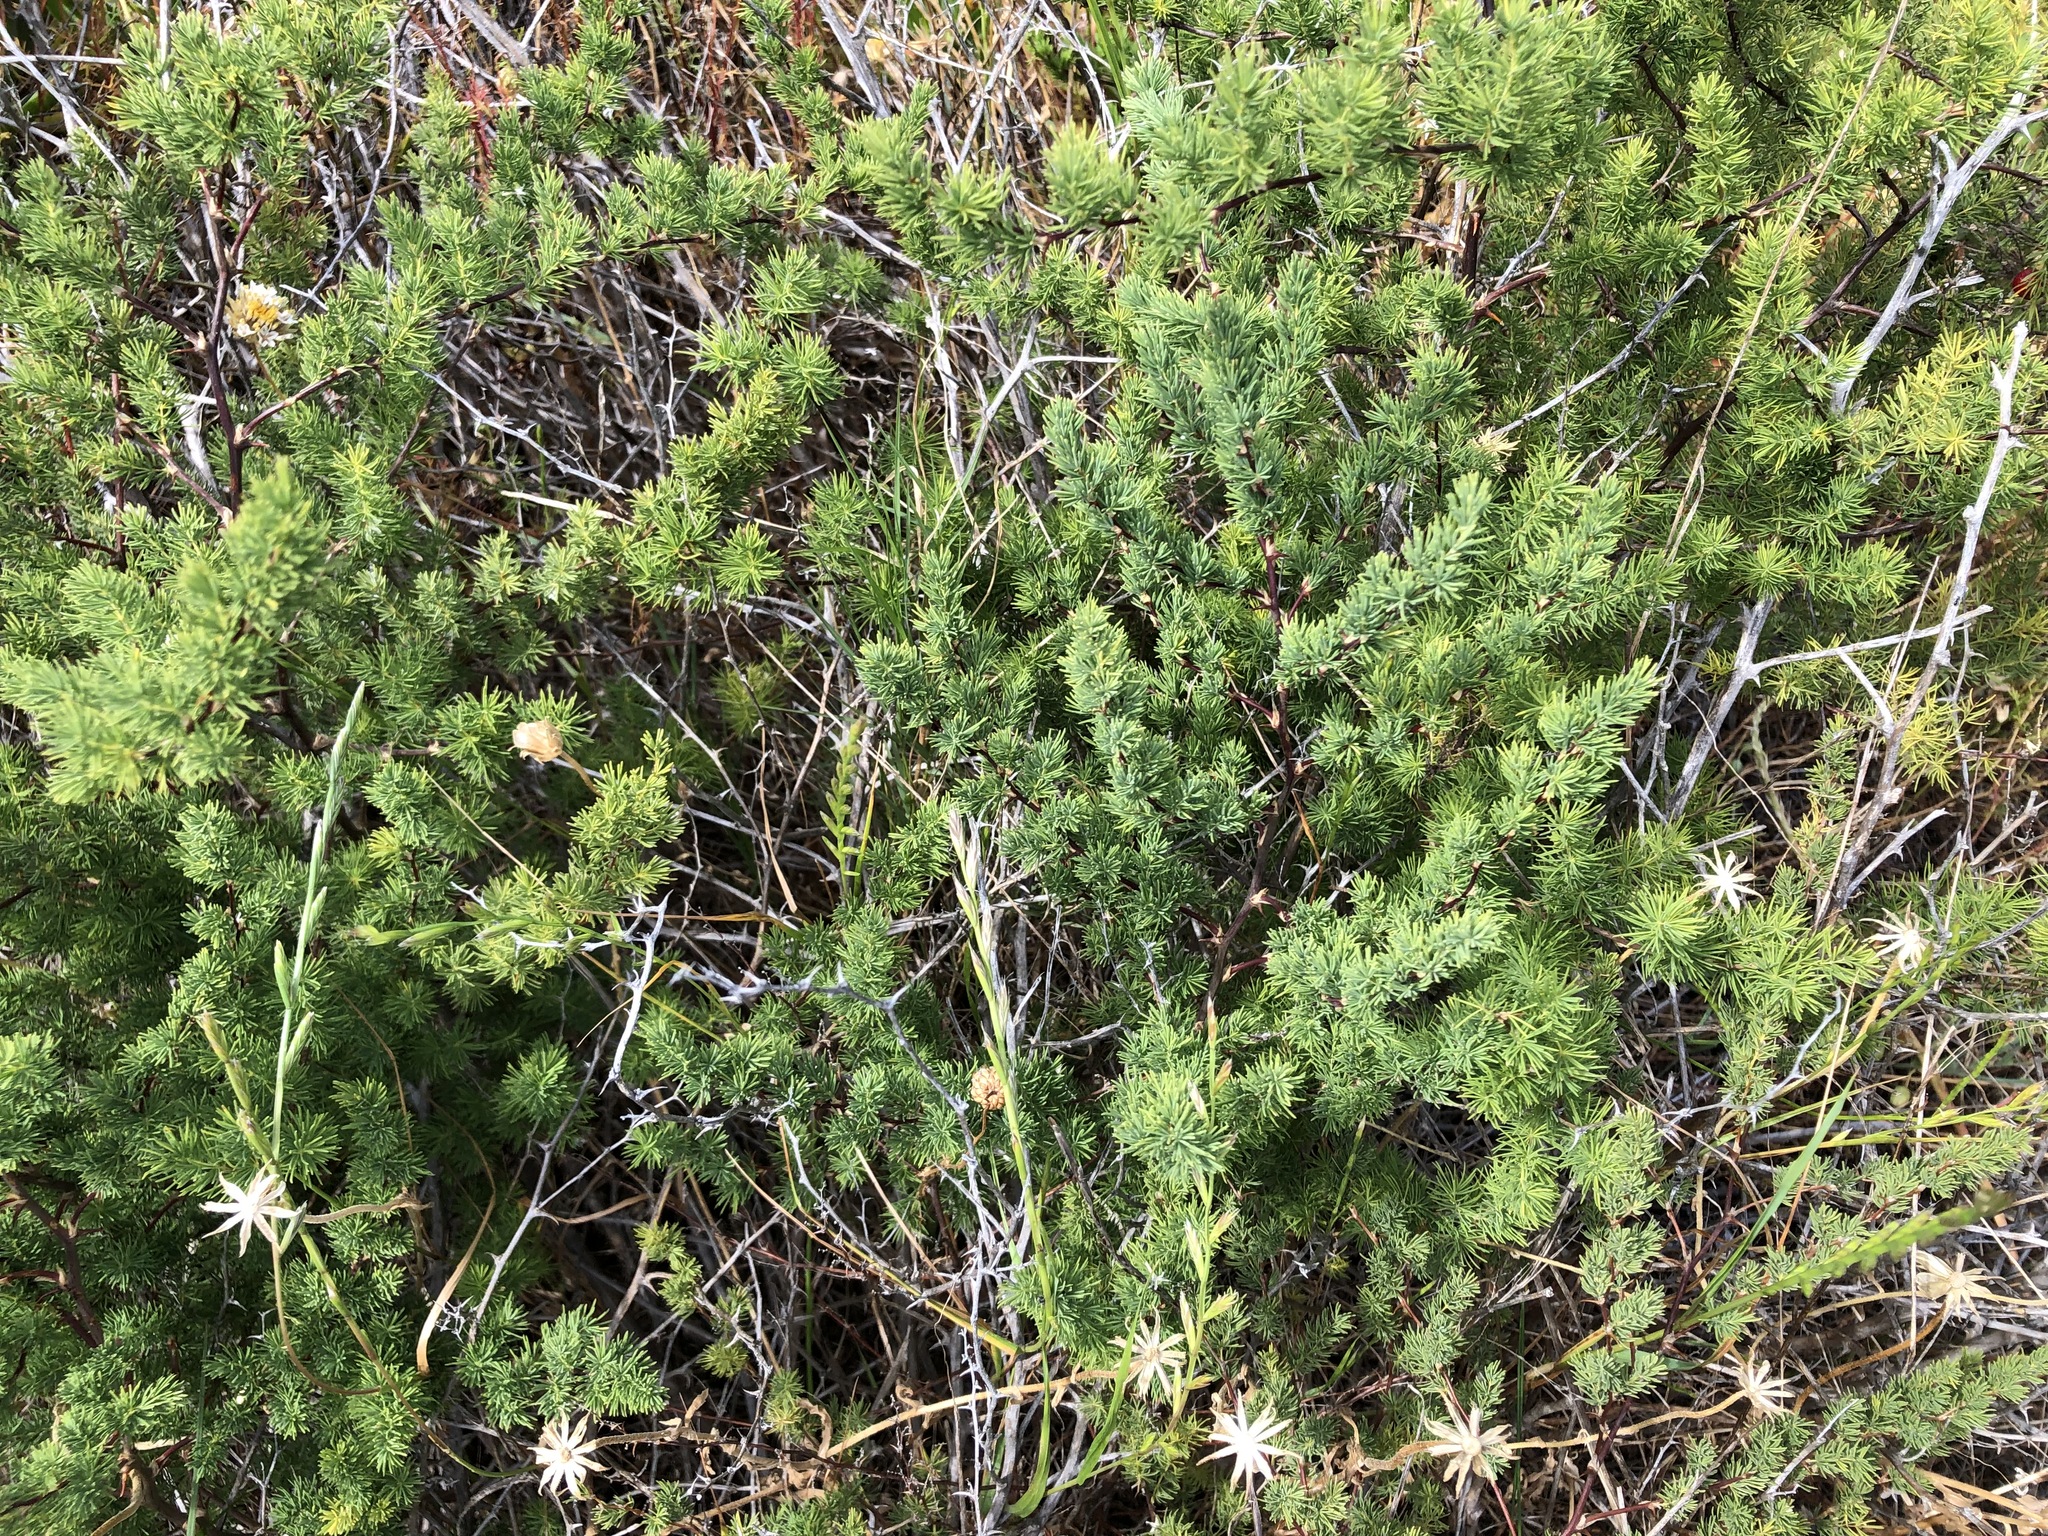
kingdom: Plantae
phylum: Tracheophyta
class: Liliopsida
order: Asparagales
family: Asparagaceae
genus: Asparagus
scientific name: Asparagus rubicundus
